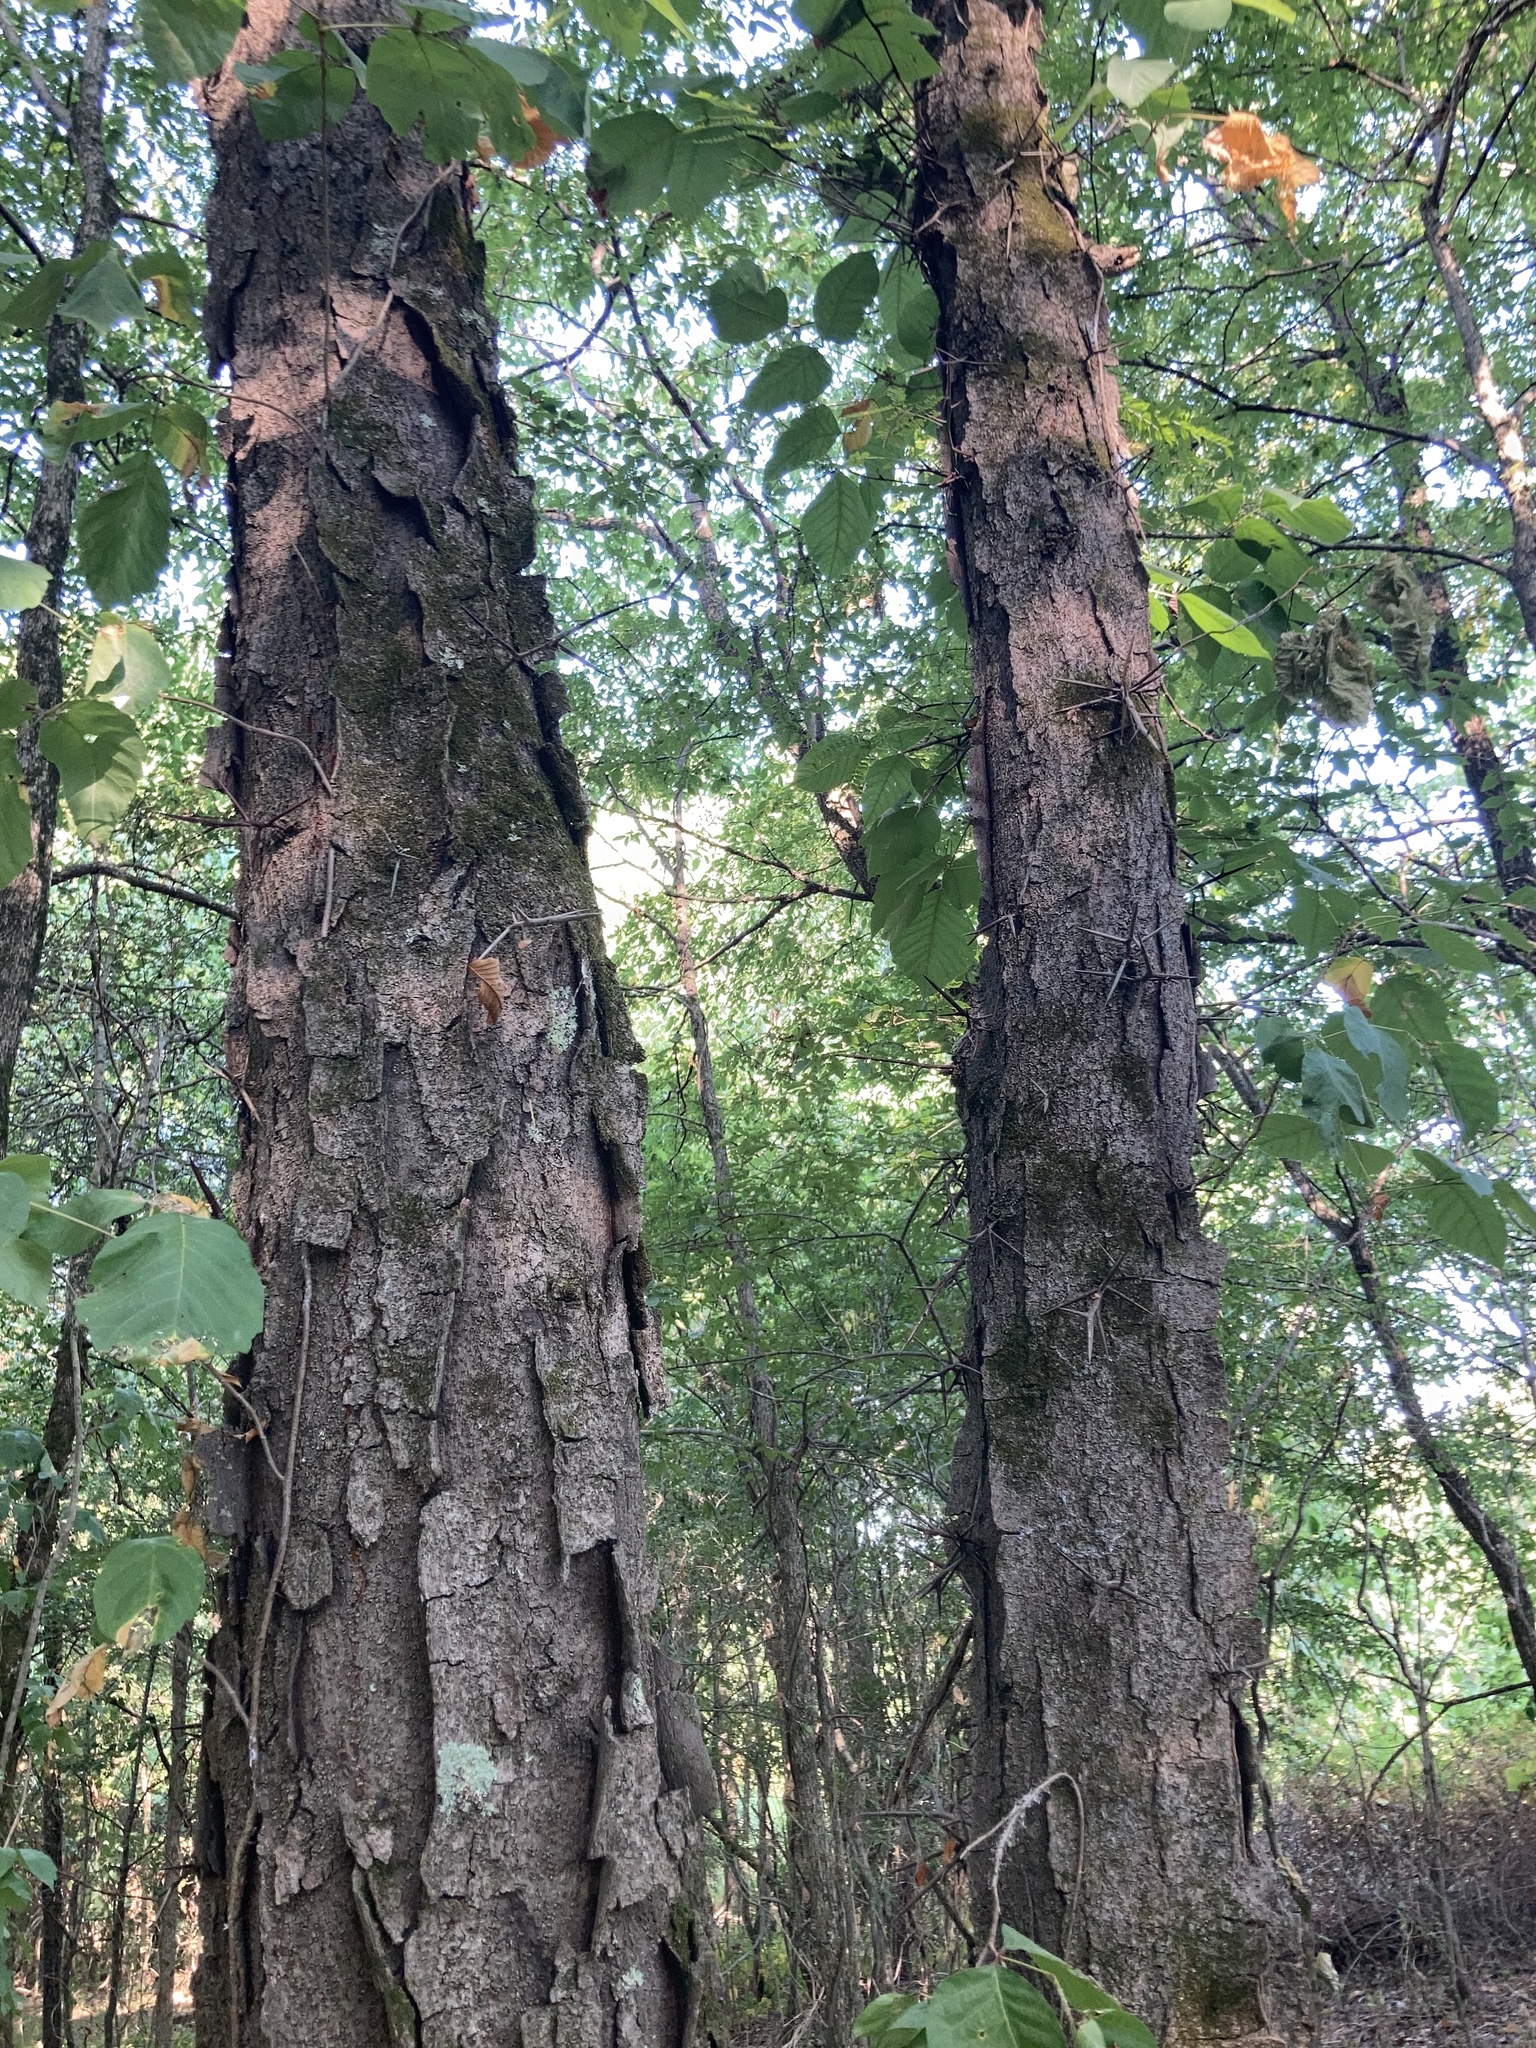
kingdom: Plantae
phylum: Tracheophyta
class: Magnoliopsida
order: Fabales
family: Fabaceae
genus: Gleditsia
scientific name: Gleditsia triacanthos
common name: Common honeylocust
